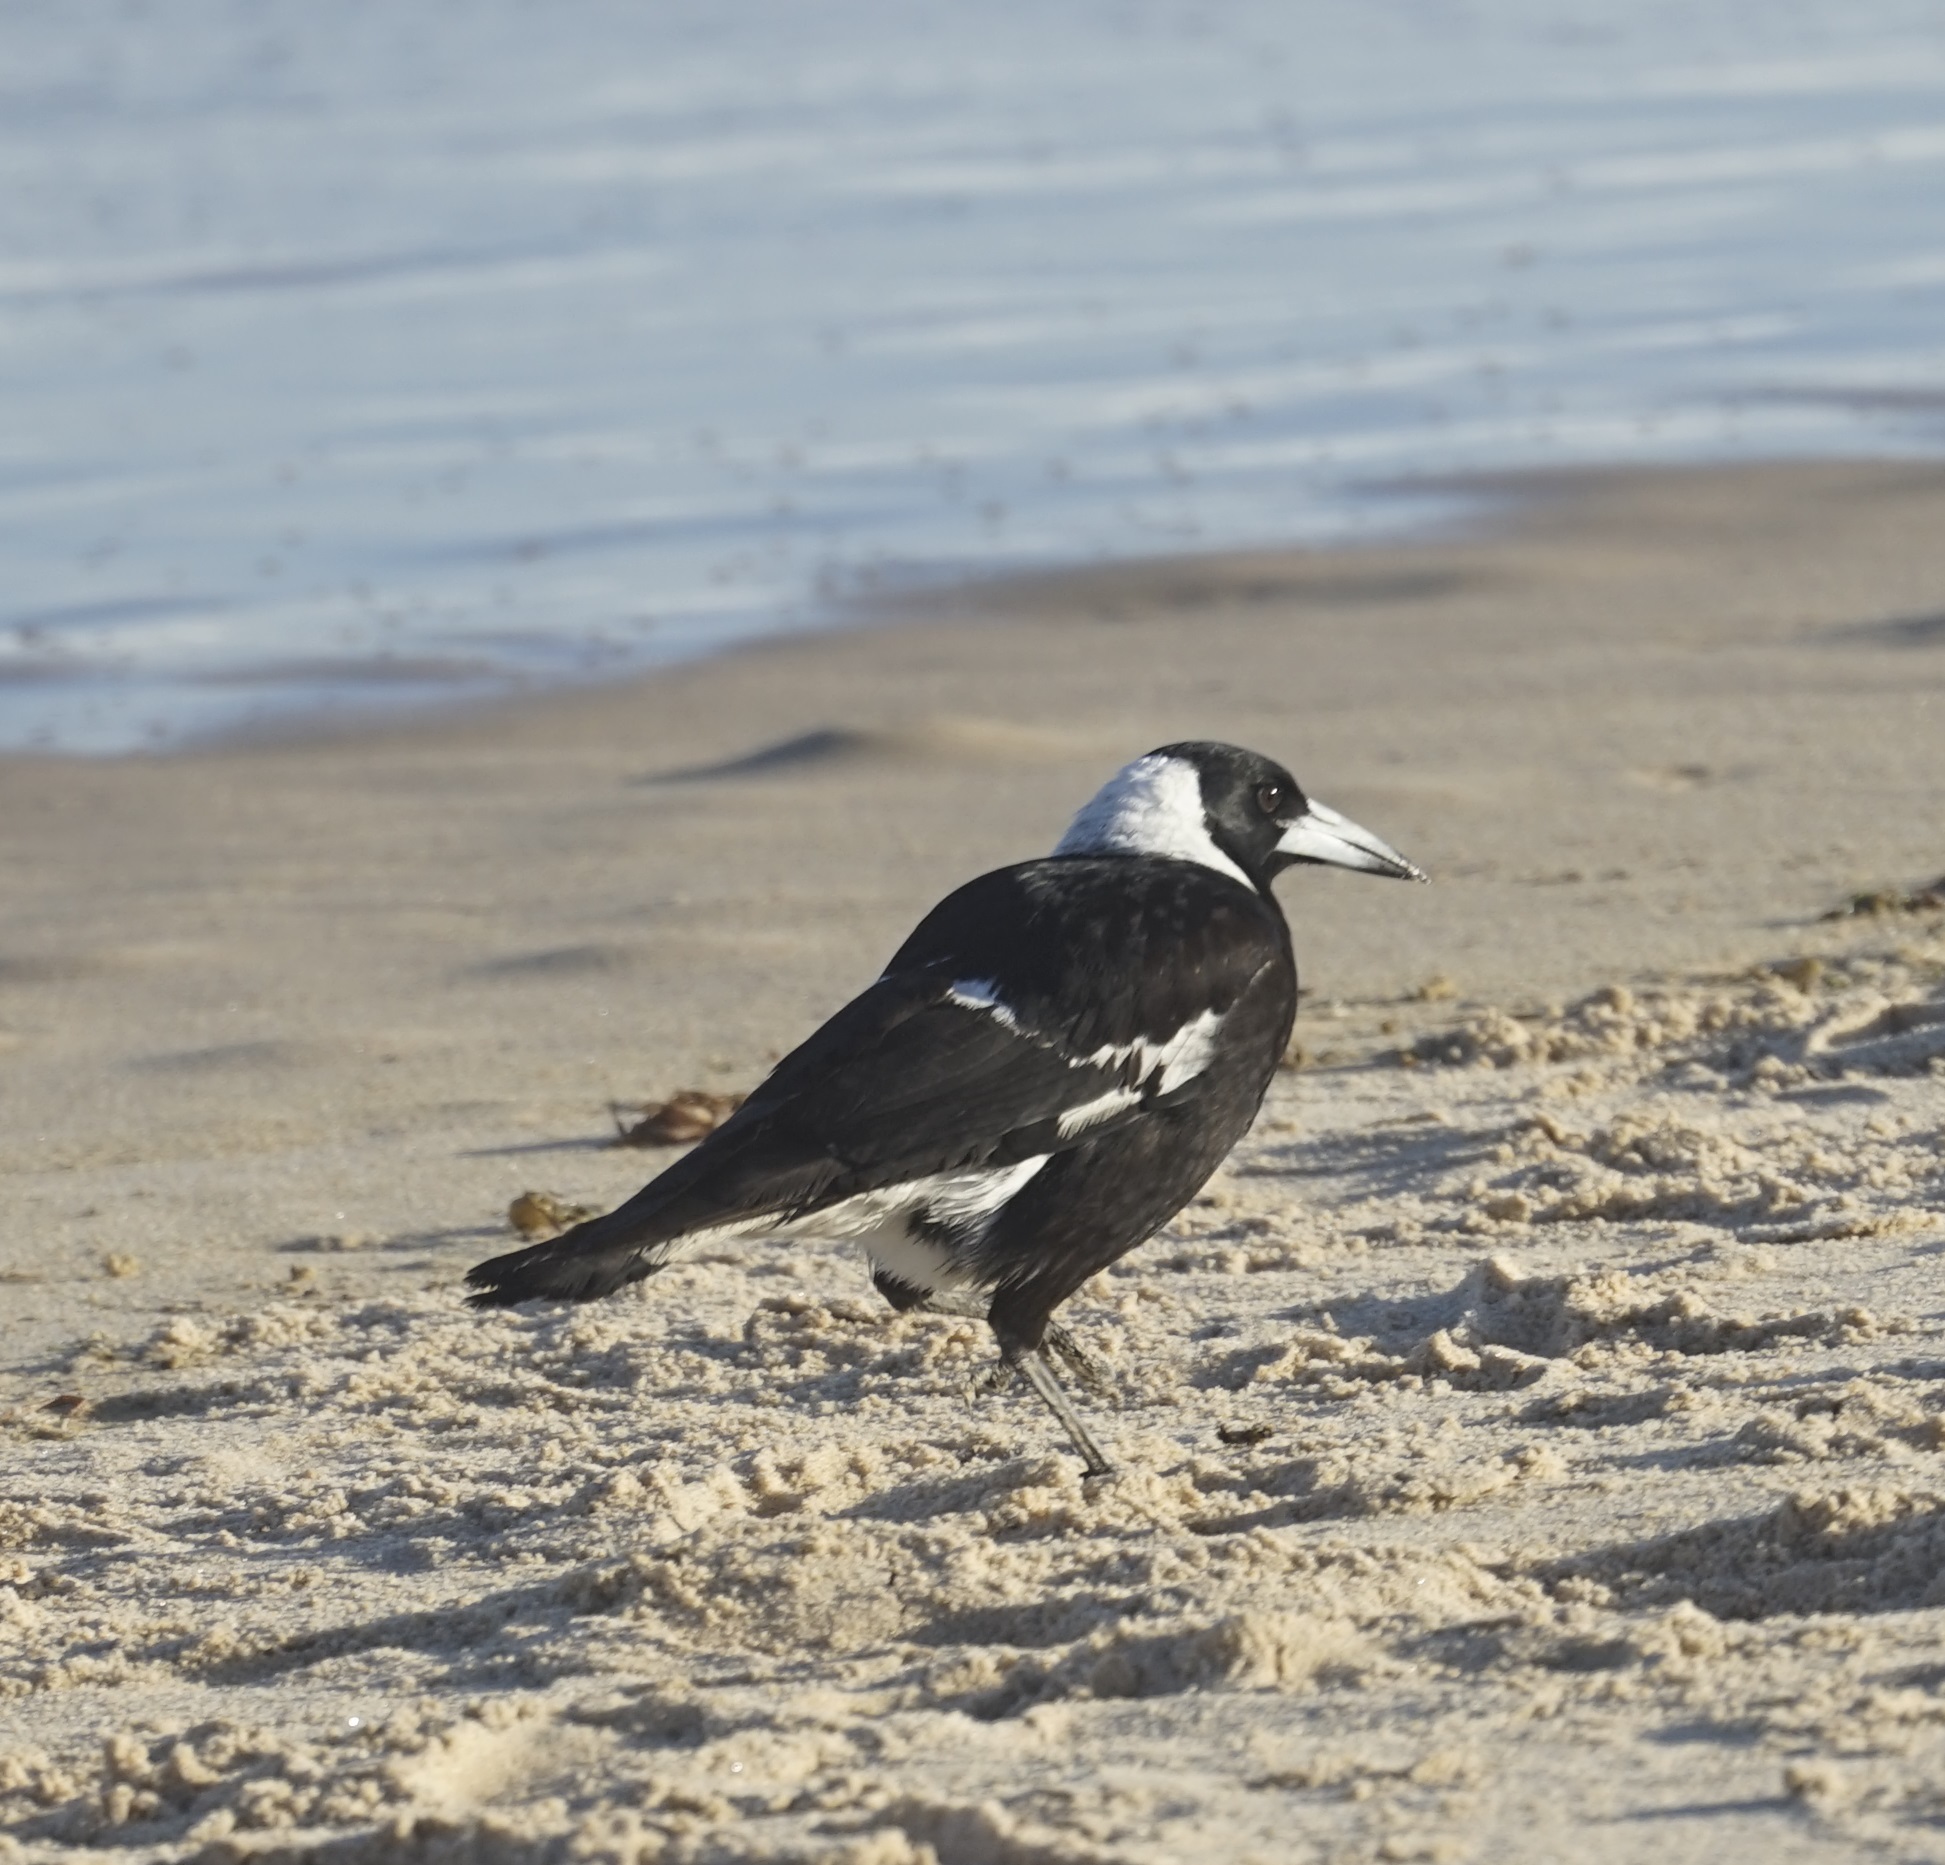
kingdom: Animalia
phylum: Chordata
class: Aves
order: Passeriformes
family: Cracticidae
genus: Gymnorhina
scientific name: Gymnorhina tibicen
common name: Australian magpie
